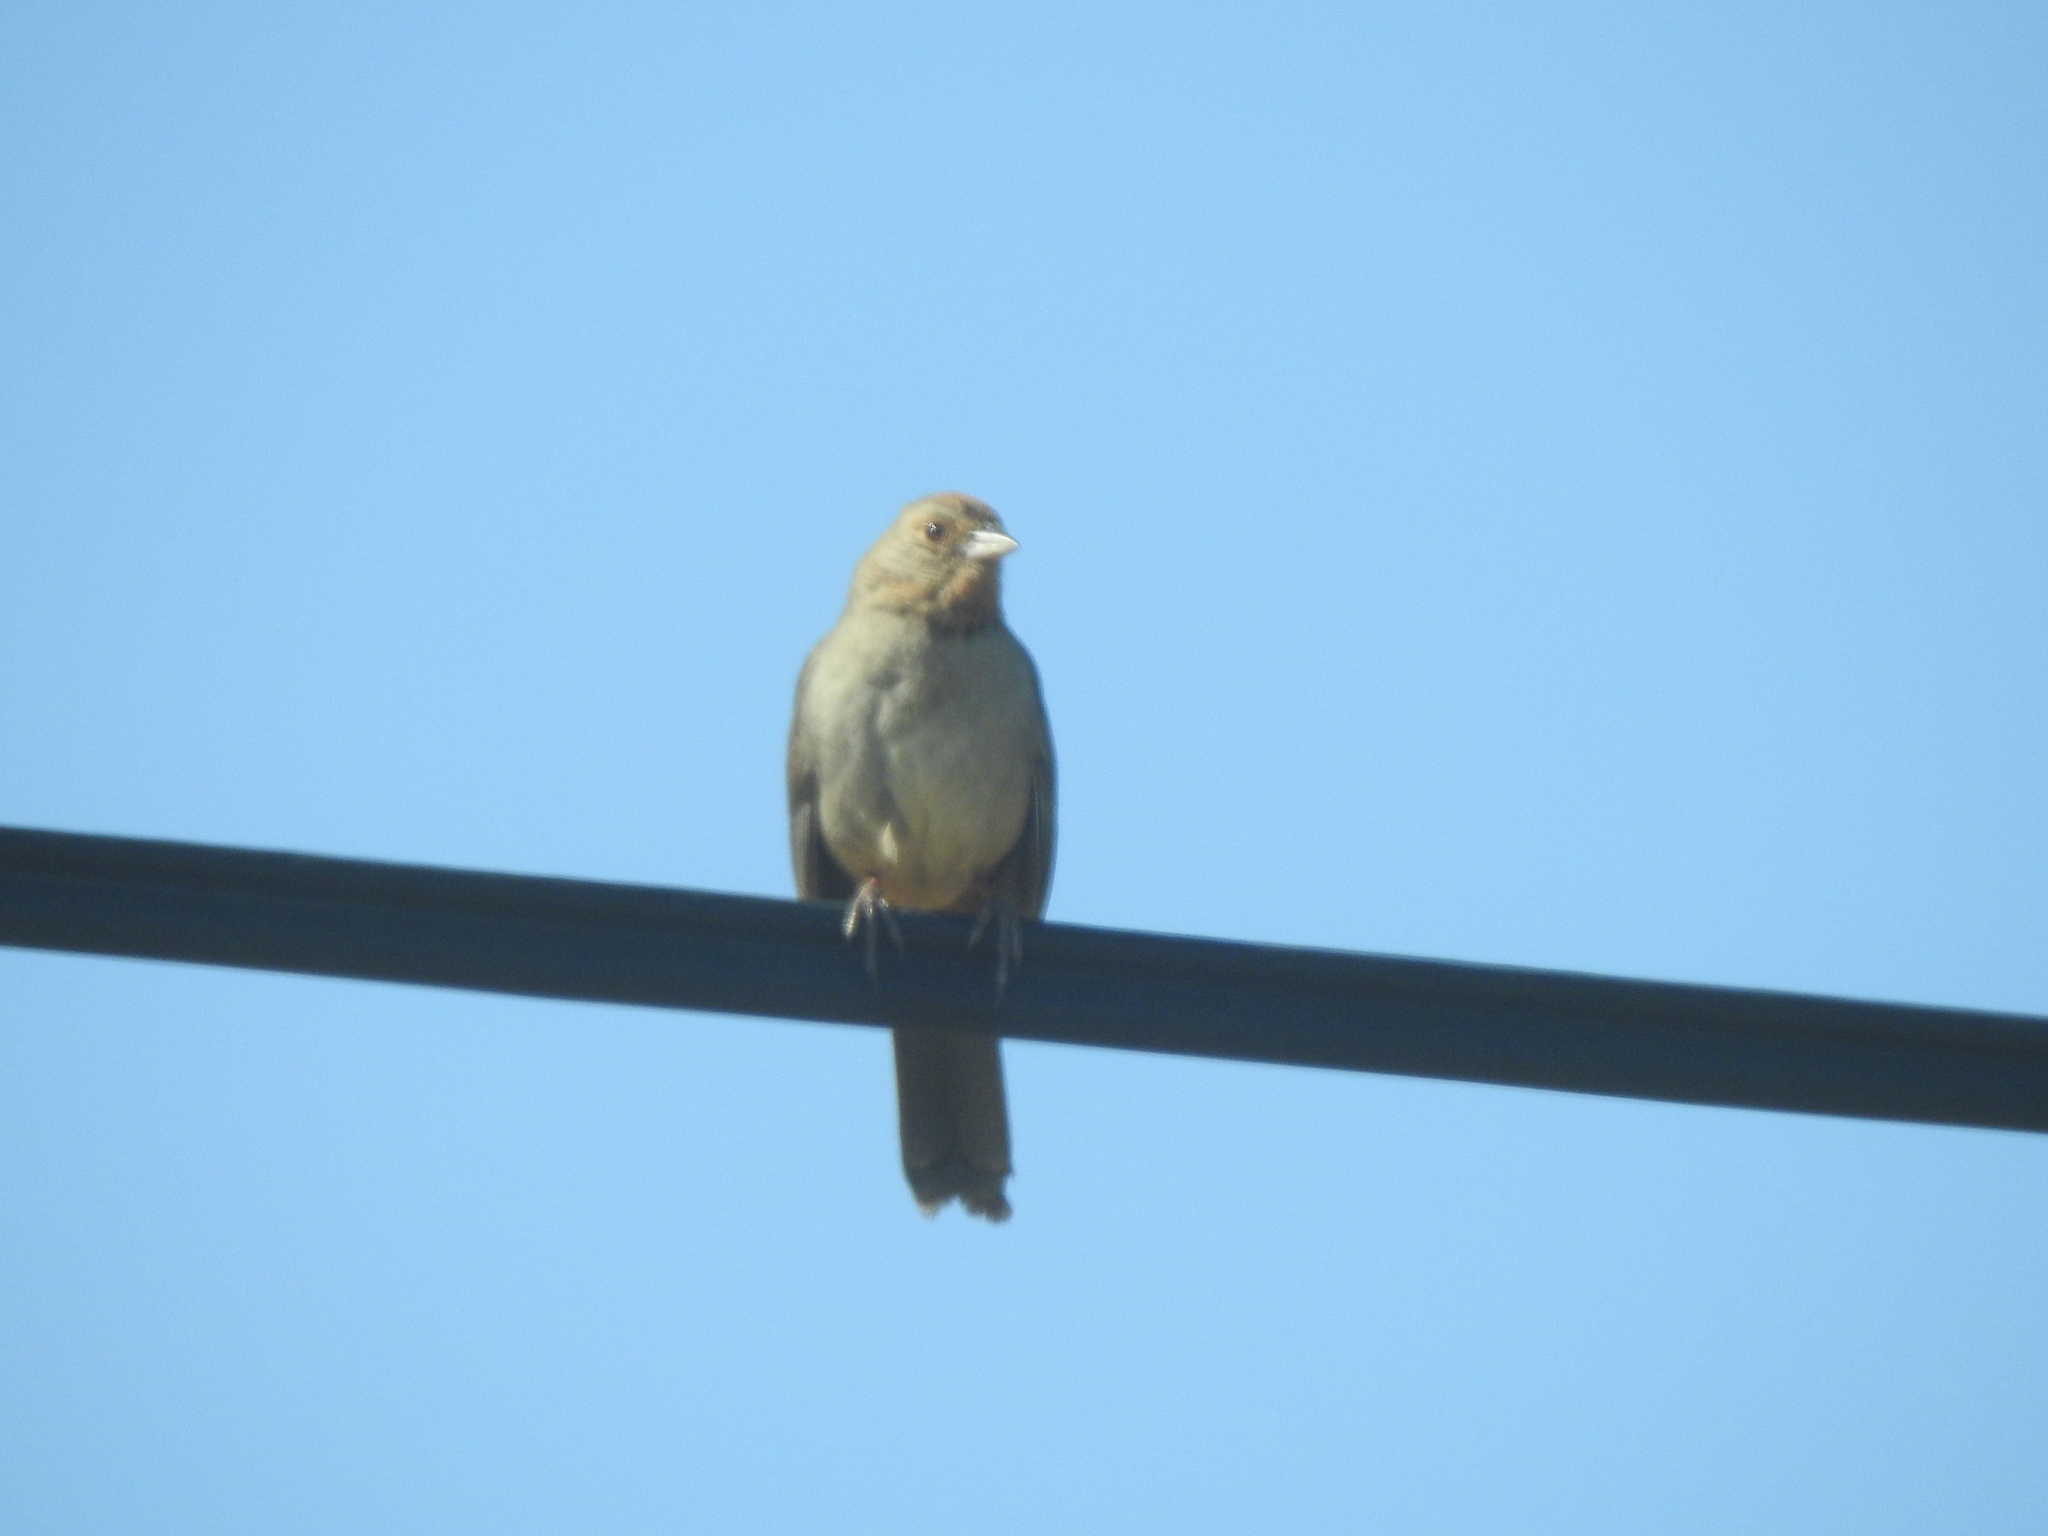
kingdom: Animalia
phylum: Chordata
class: Aves
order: Passeriformes
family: Passerellidae
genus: Melozone
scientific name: Melozone crissalis
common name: California towhee
